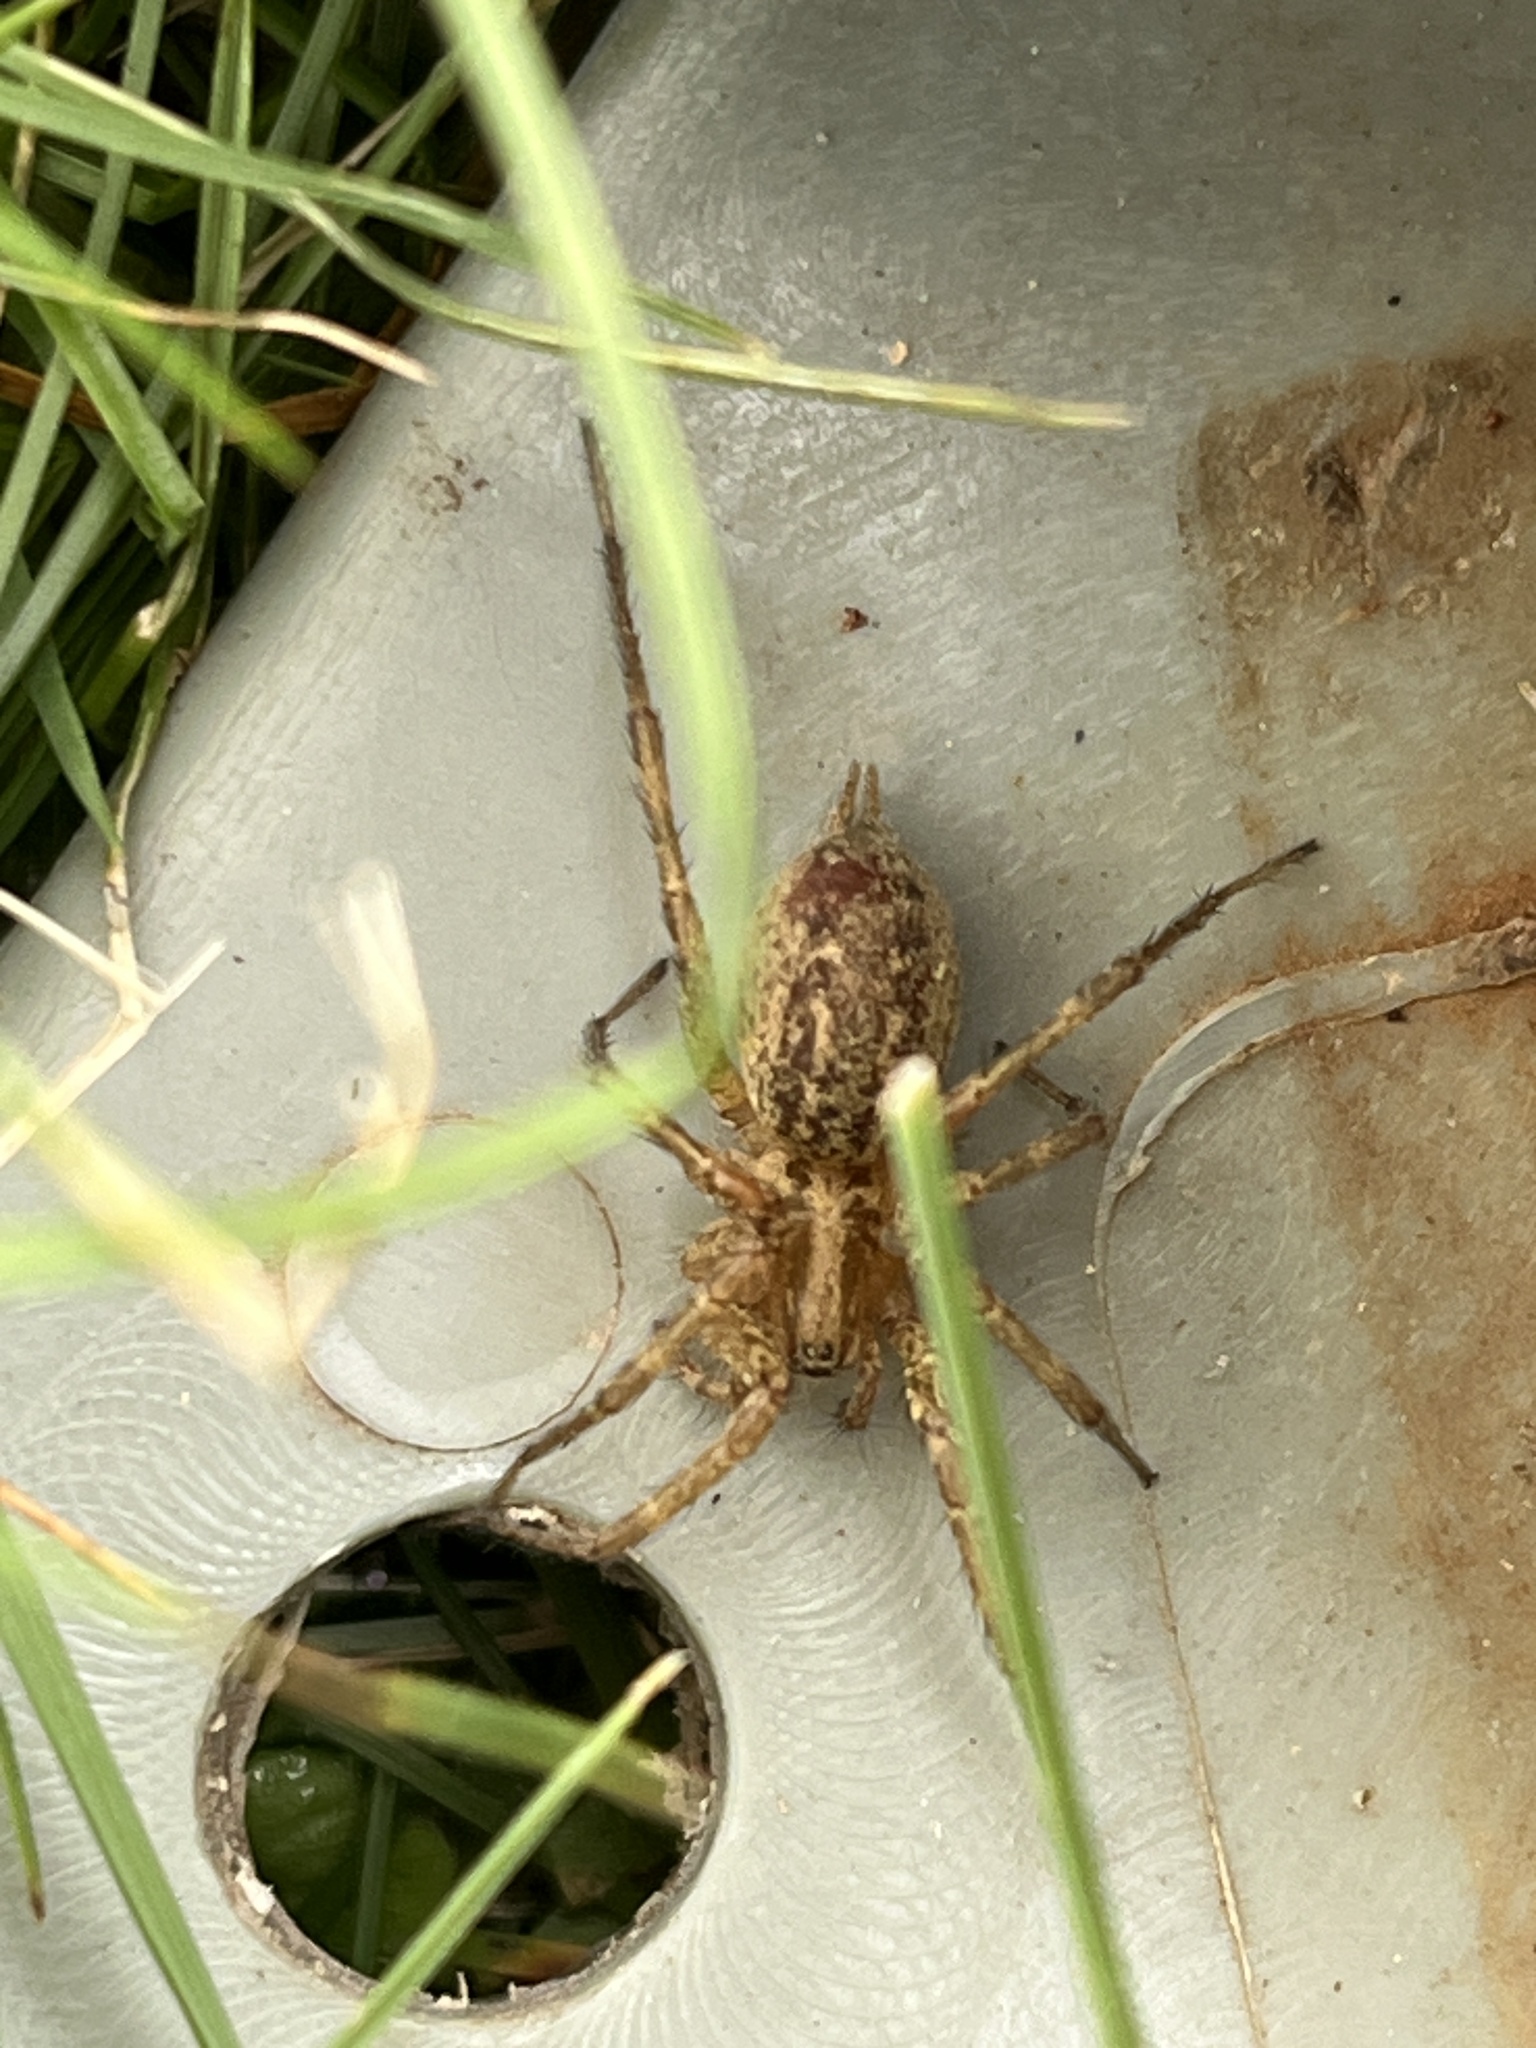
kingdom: Animalia
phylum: Arthropoda
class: Arachnida
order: Araneae
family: Agelenidae
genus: Agelenopsis
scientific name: Agelenopsis
